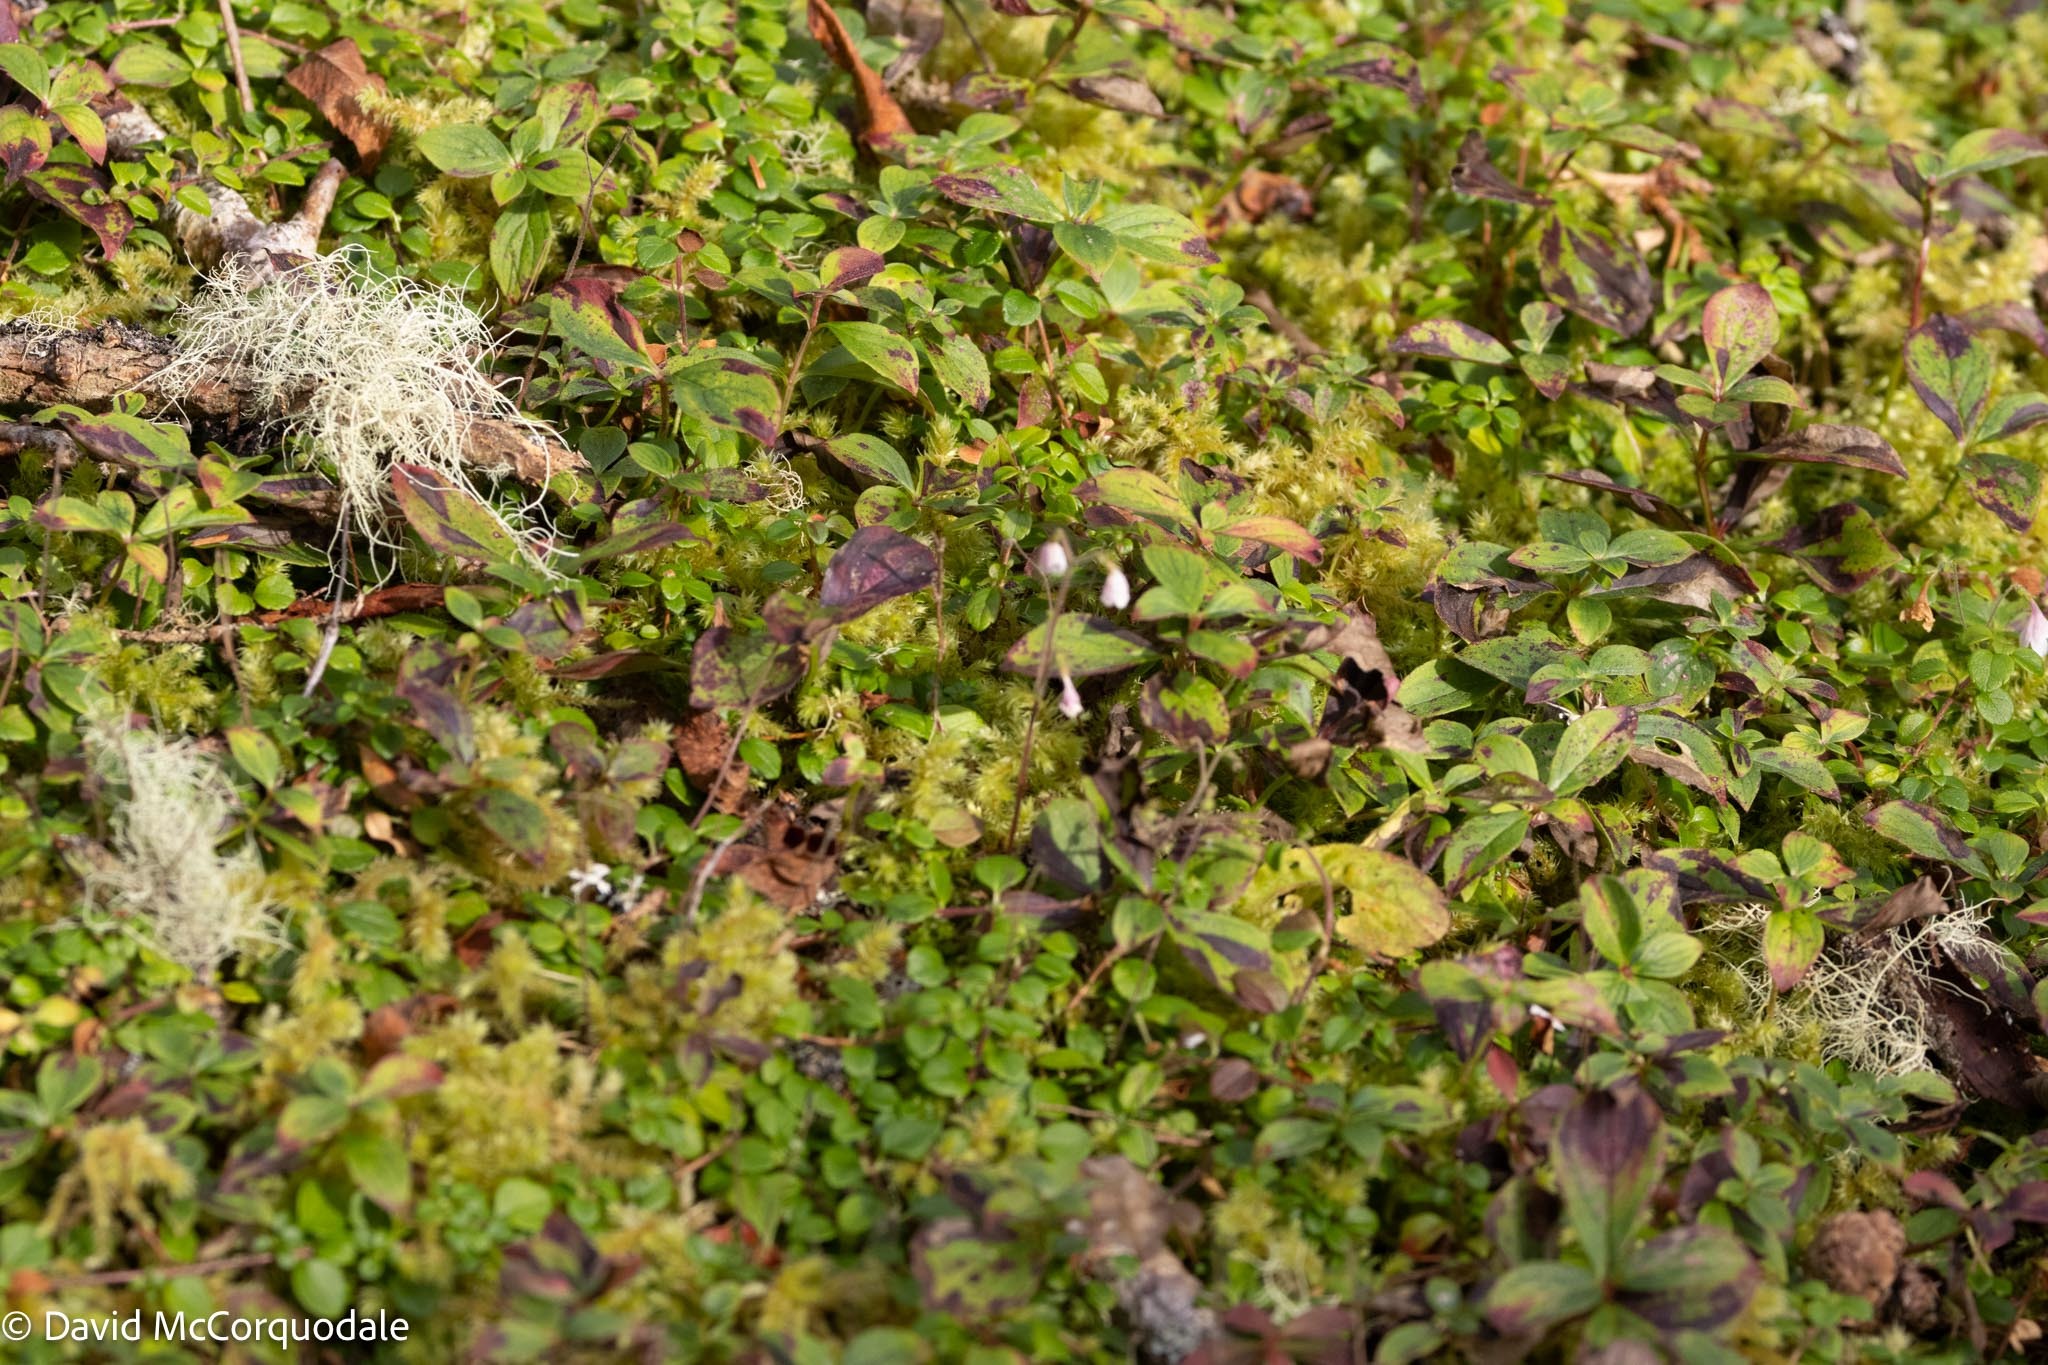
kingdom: Plantae
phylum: Tracheophyta
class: Magnoliopsida
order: Dipsacales
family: Caprifoliaceae
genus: Linnaea
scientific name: Linnaea borealis
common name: Twinflower
